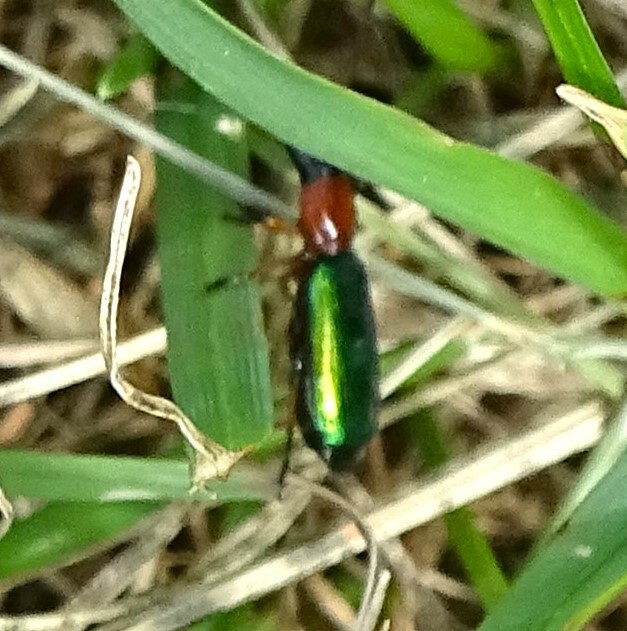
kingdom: Animalia
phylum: Arthropoda
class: Insecta
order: Coleoptera
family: Carabidae
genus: Calleida
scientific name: Calleida punctata
